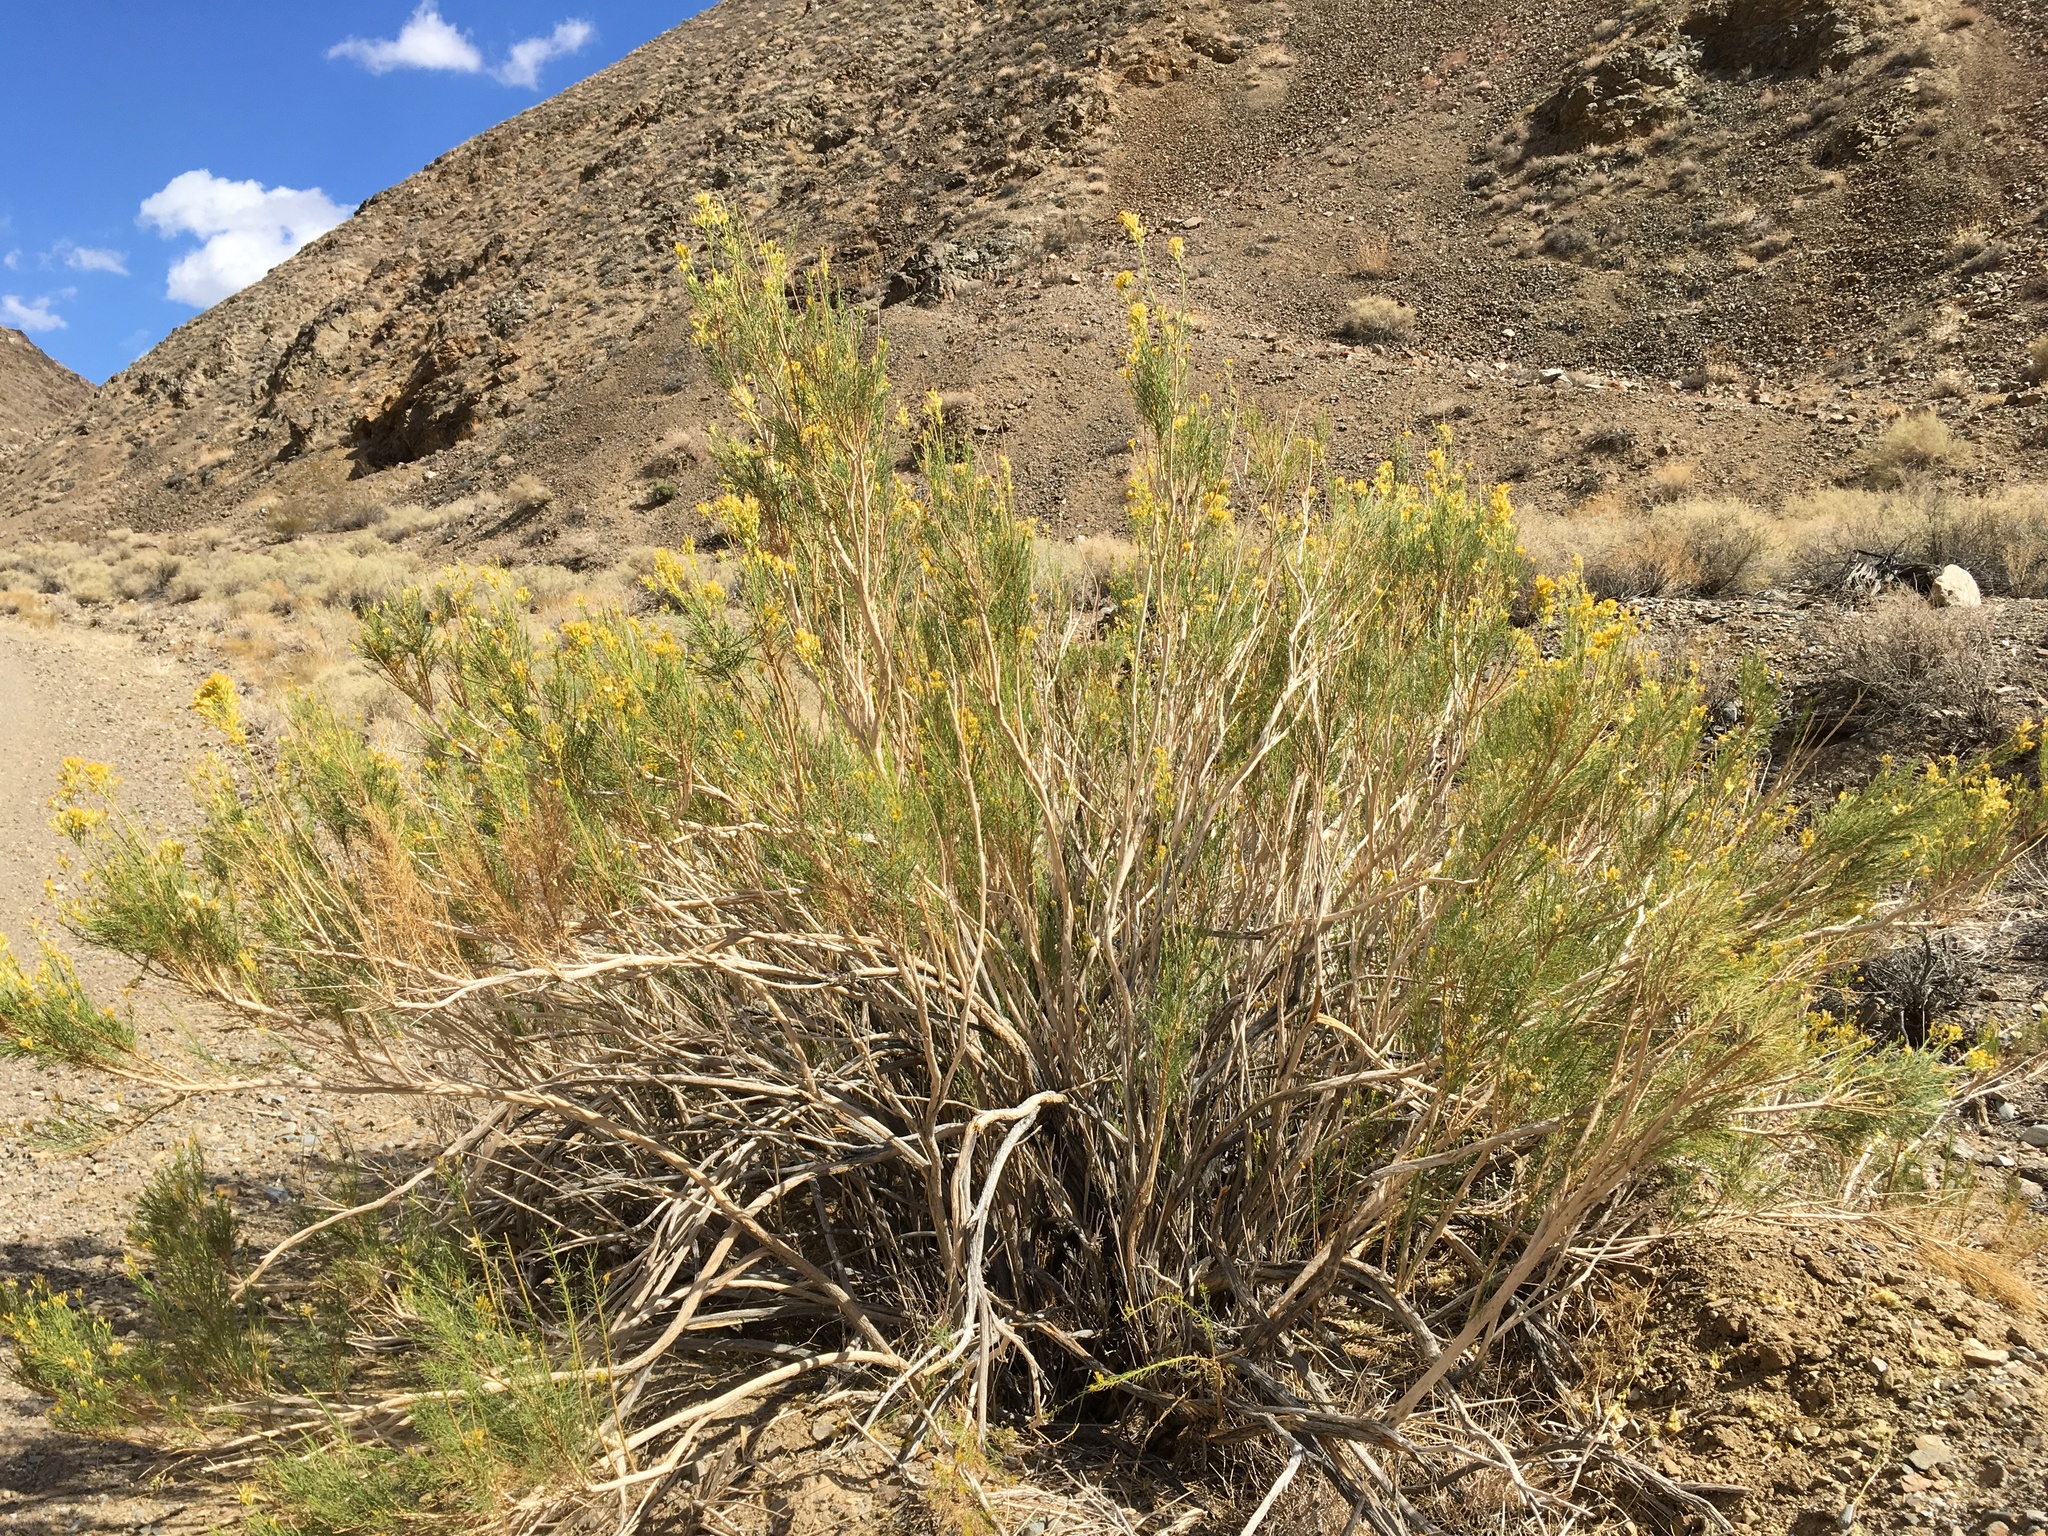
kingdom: Plantae
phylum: Tracheophyta
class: Magnoliopsida
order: Asterales
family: Asteraceae
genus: Ericameria
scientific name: Ericameria paniculata
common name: Punctate rabbitbrush
